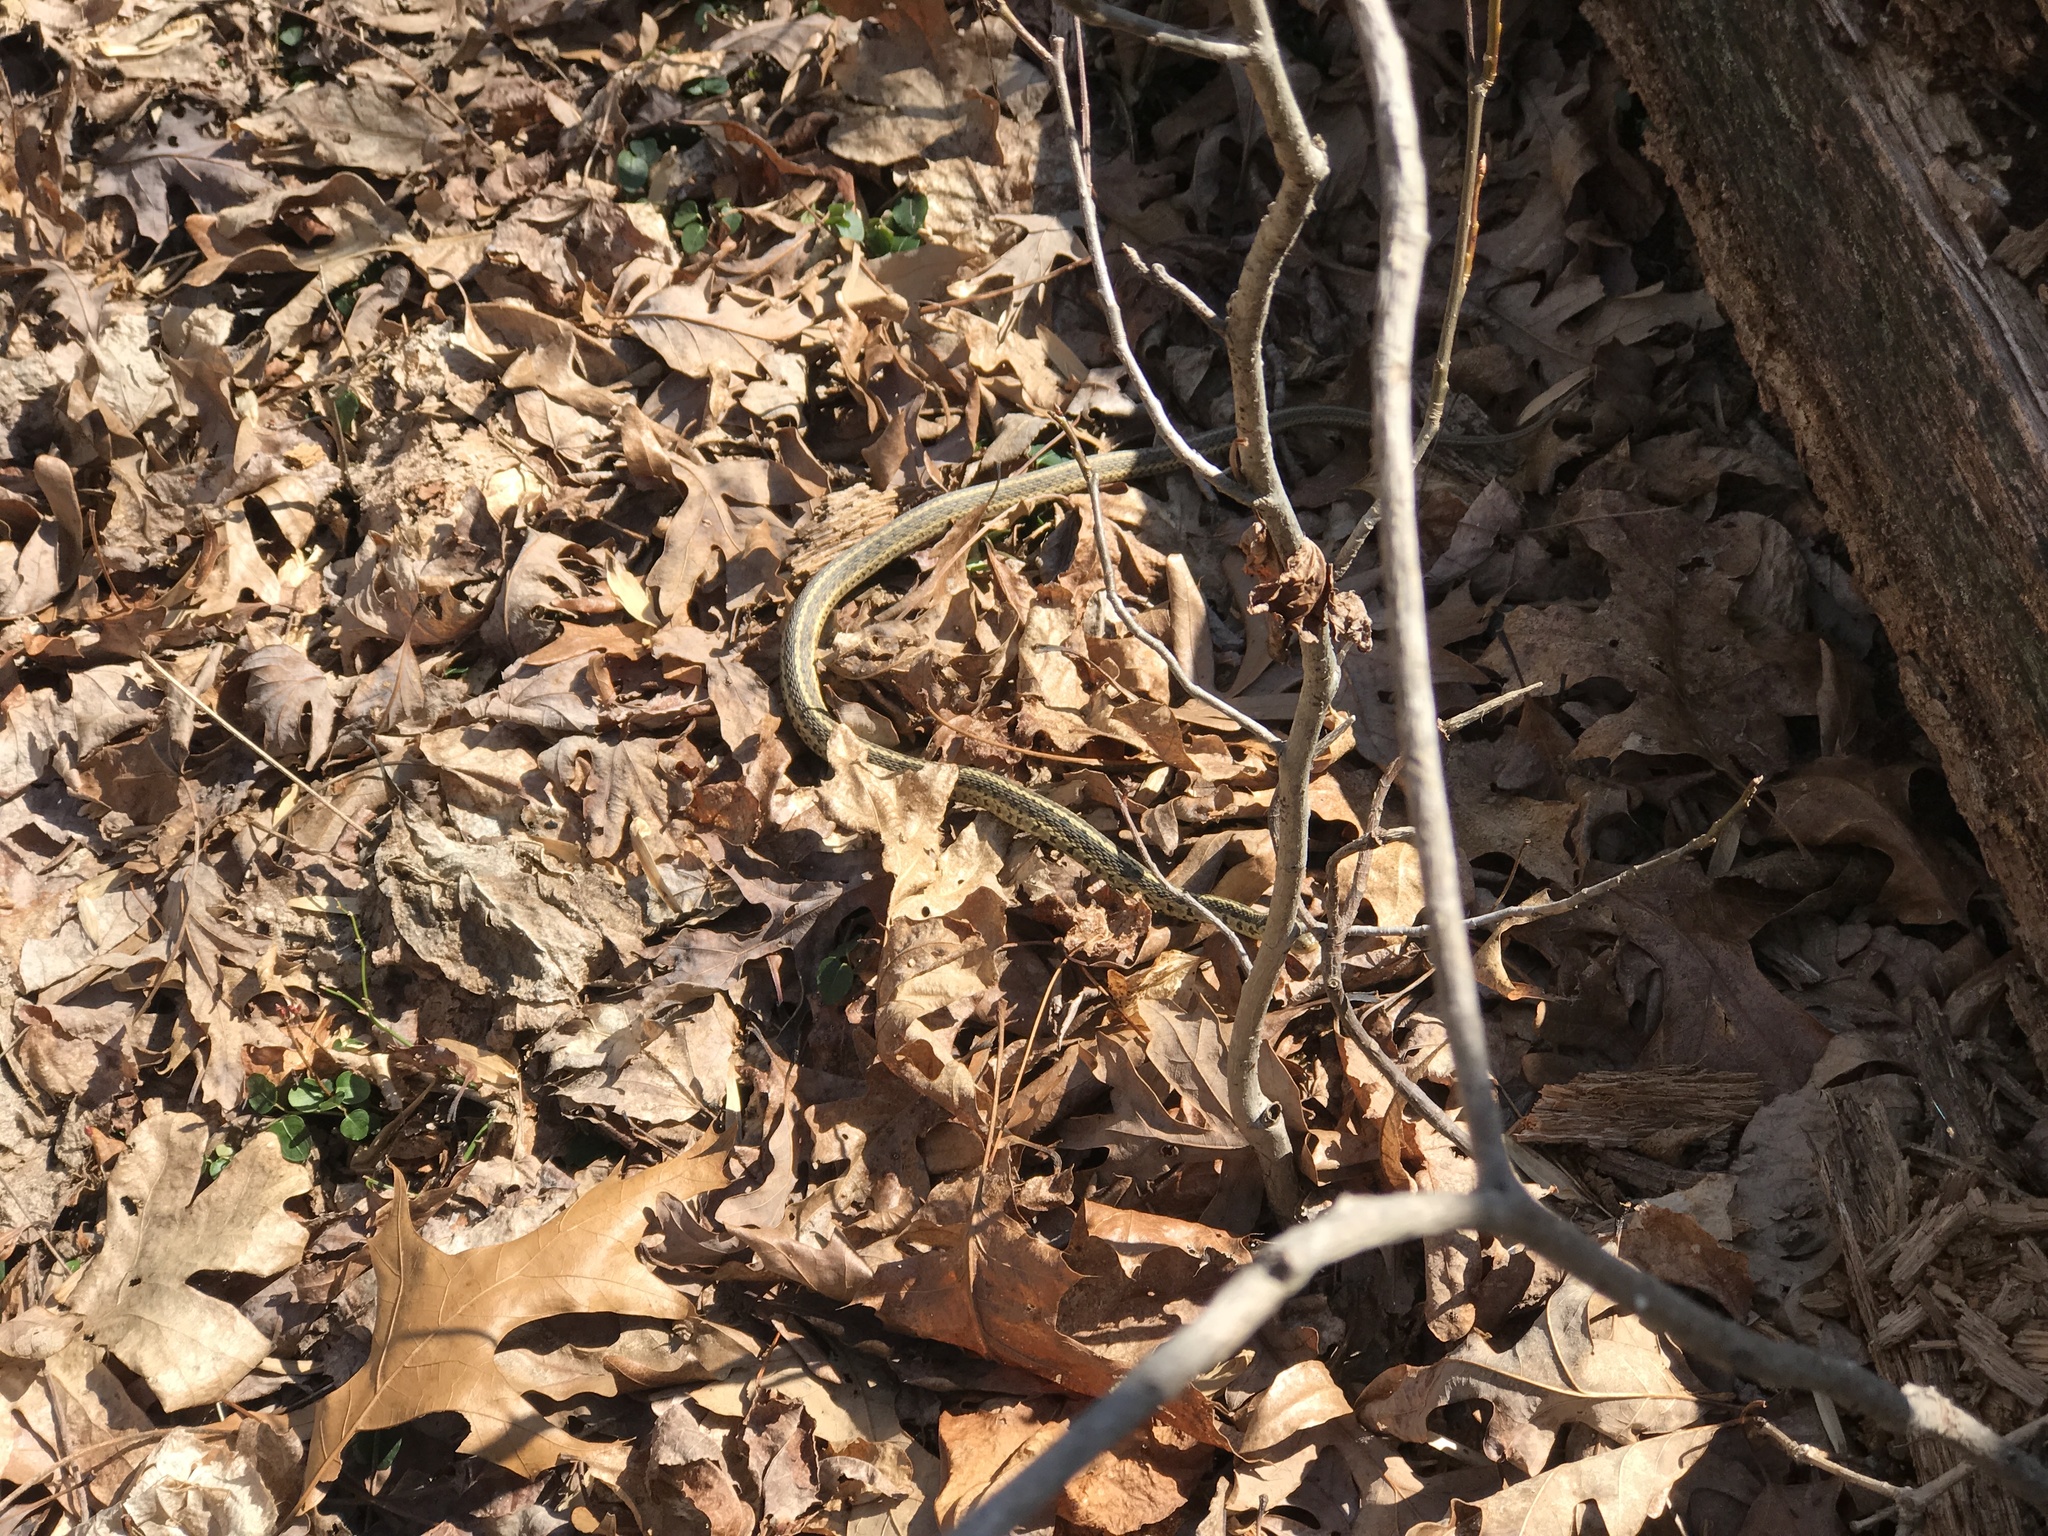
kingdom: Animalia
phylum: Chordata
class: Squamata
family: Colubridae
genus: Thamnophis
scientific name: Thamnophis sirtalis
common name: Common garter snake
